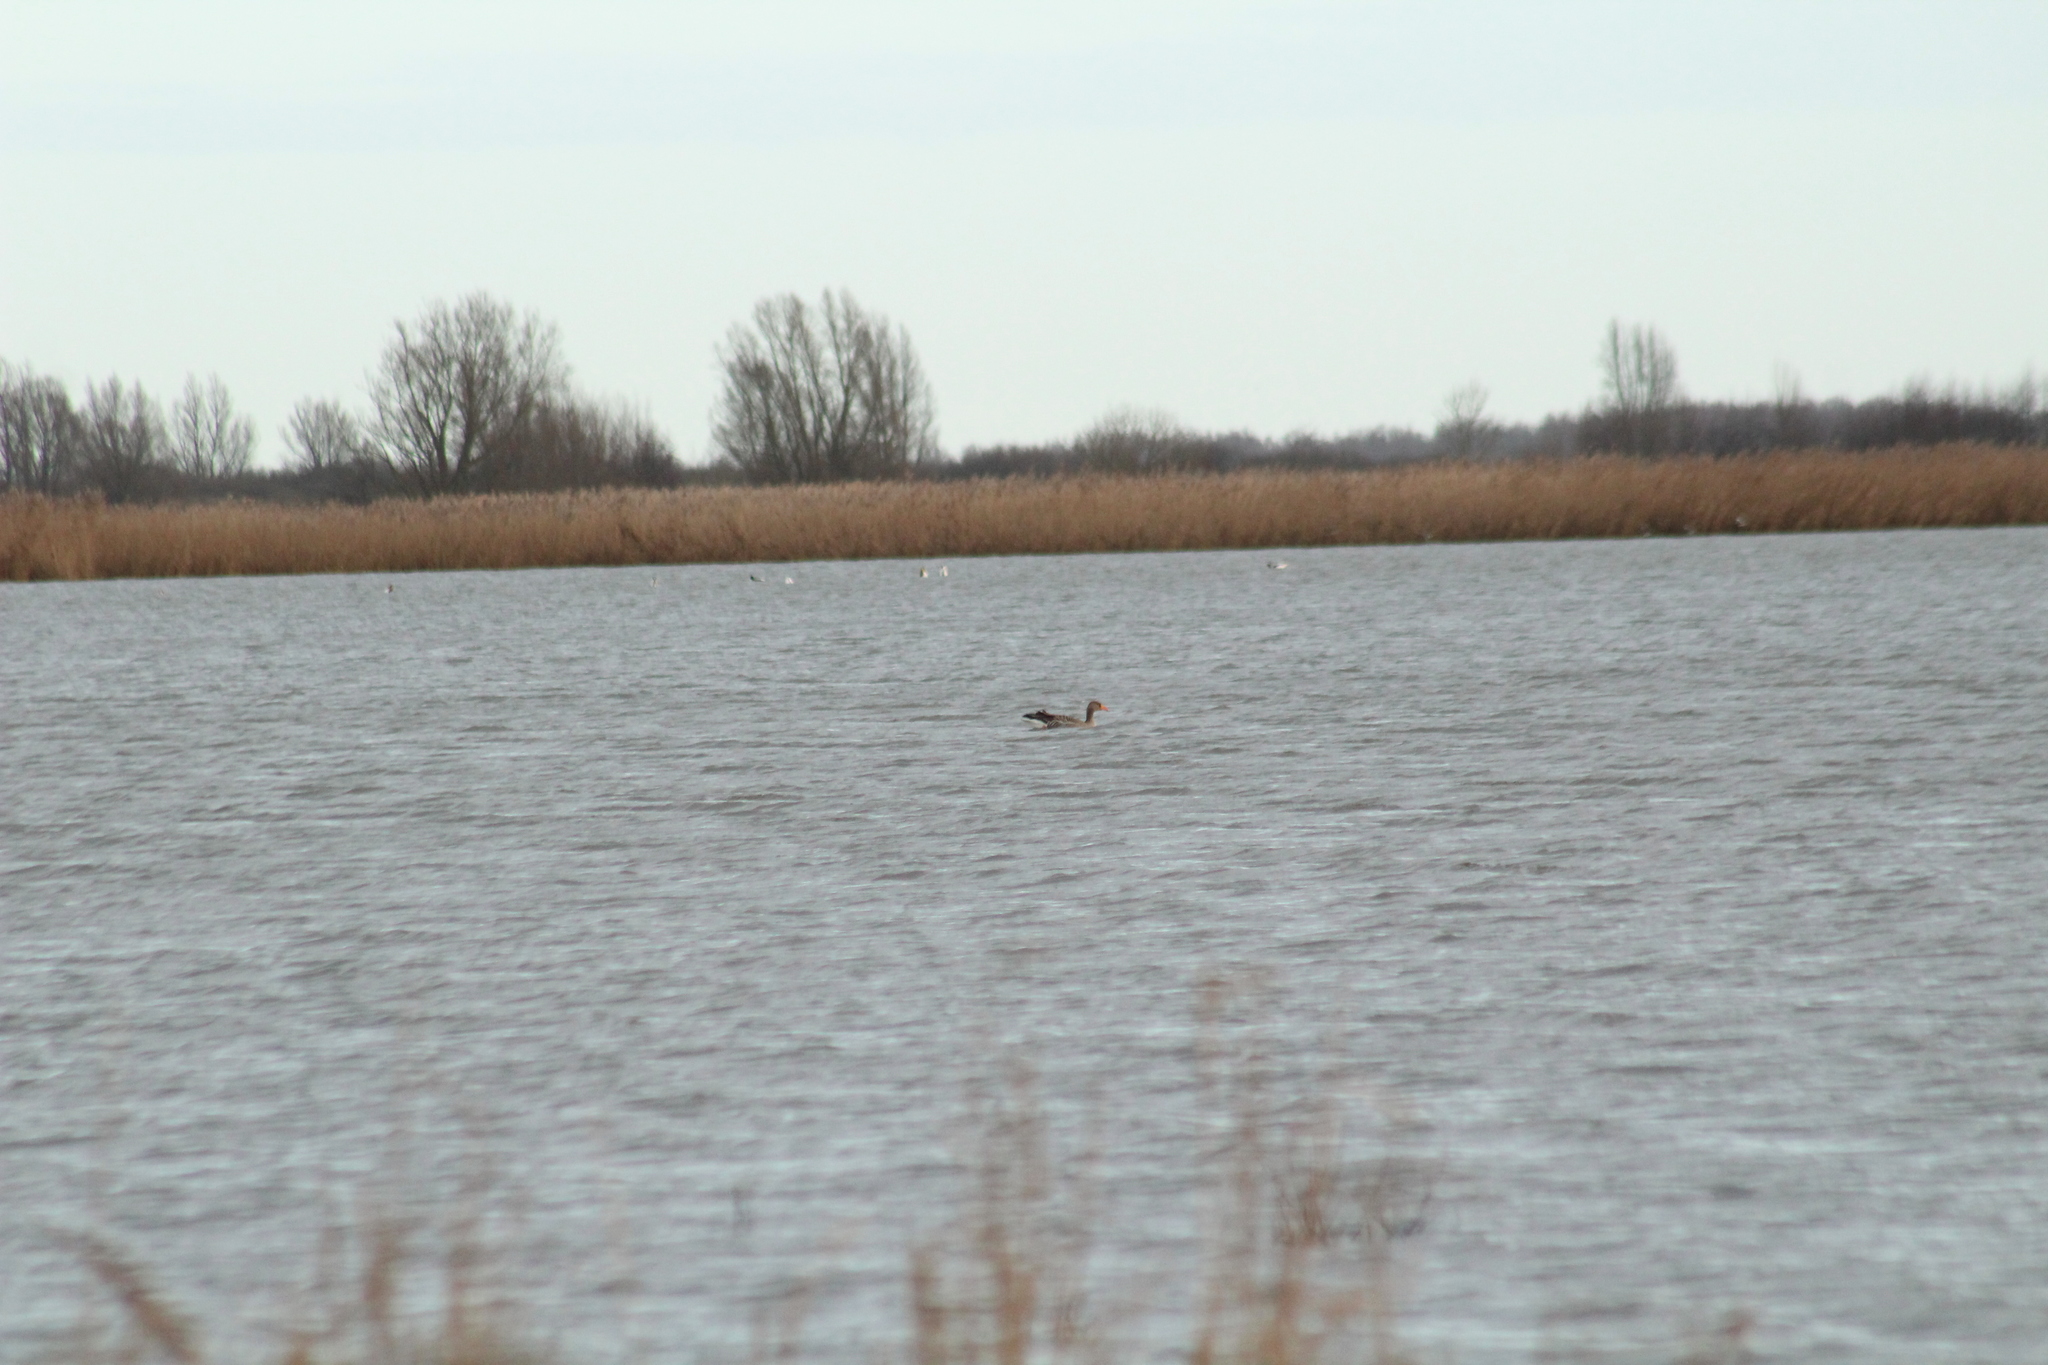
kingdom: Animalia
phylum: Chordata
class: Aves
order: Anseriformes
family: Anatidae
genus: Anser
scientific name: Anser anser
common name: Greylag goose
